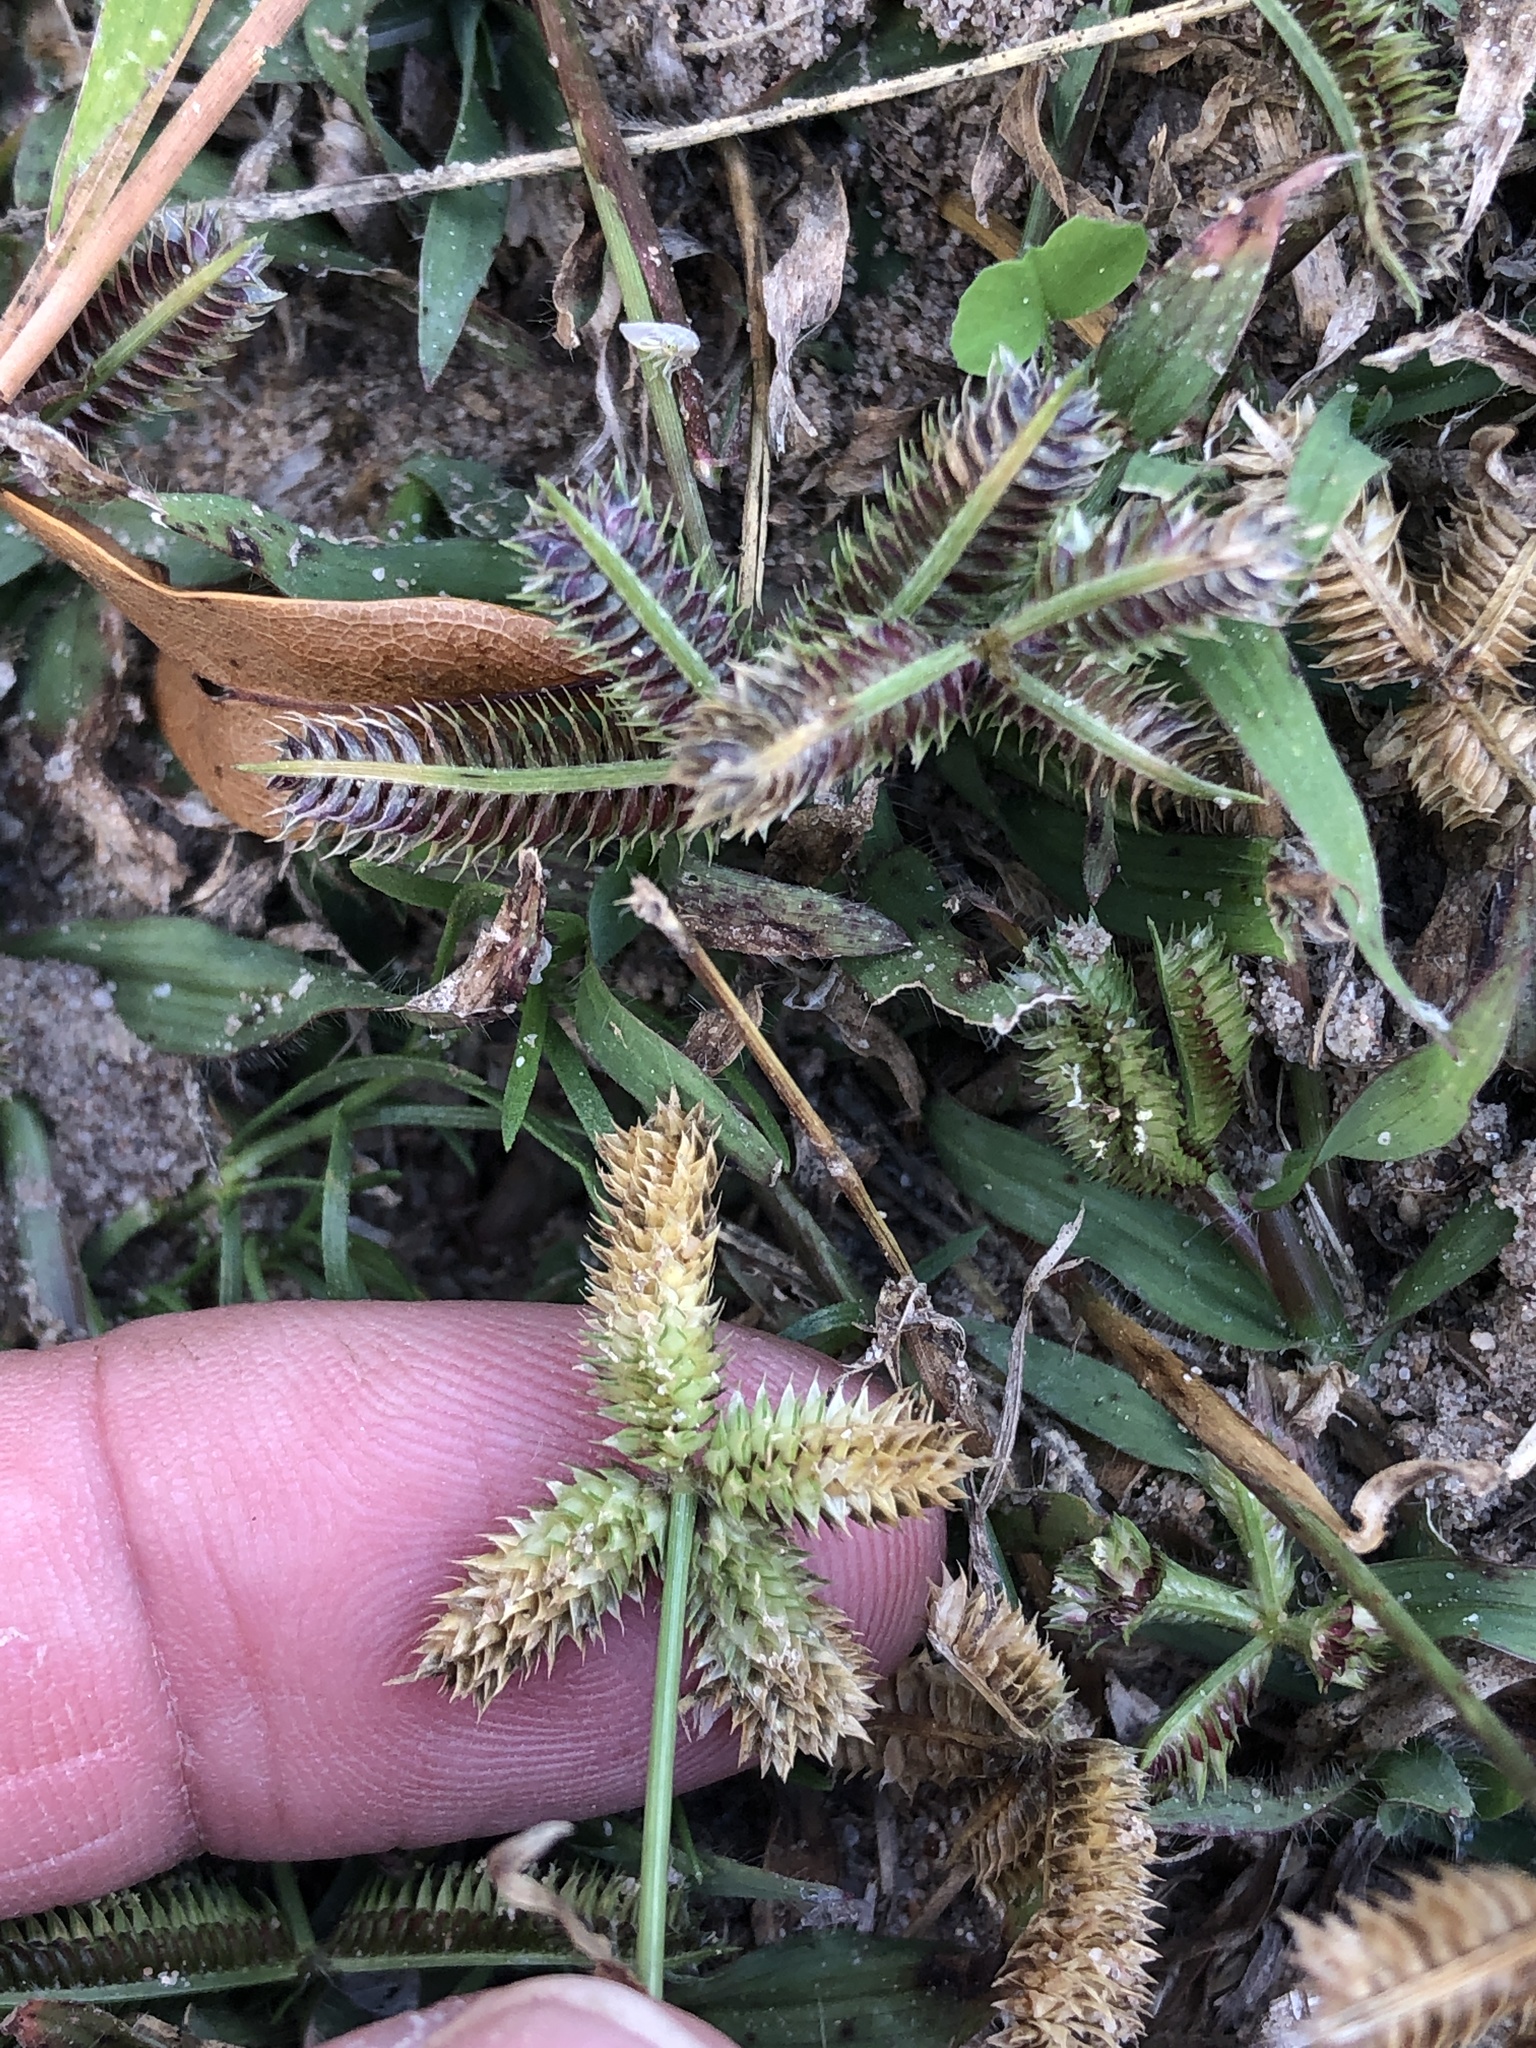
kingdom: Plantae
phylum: Tracheophyta
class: Liliopsida
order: Poales
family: Poaceae
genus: Dactyloctenium
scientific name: Dactyloctenium aegyptium
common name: Egyptian grass
